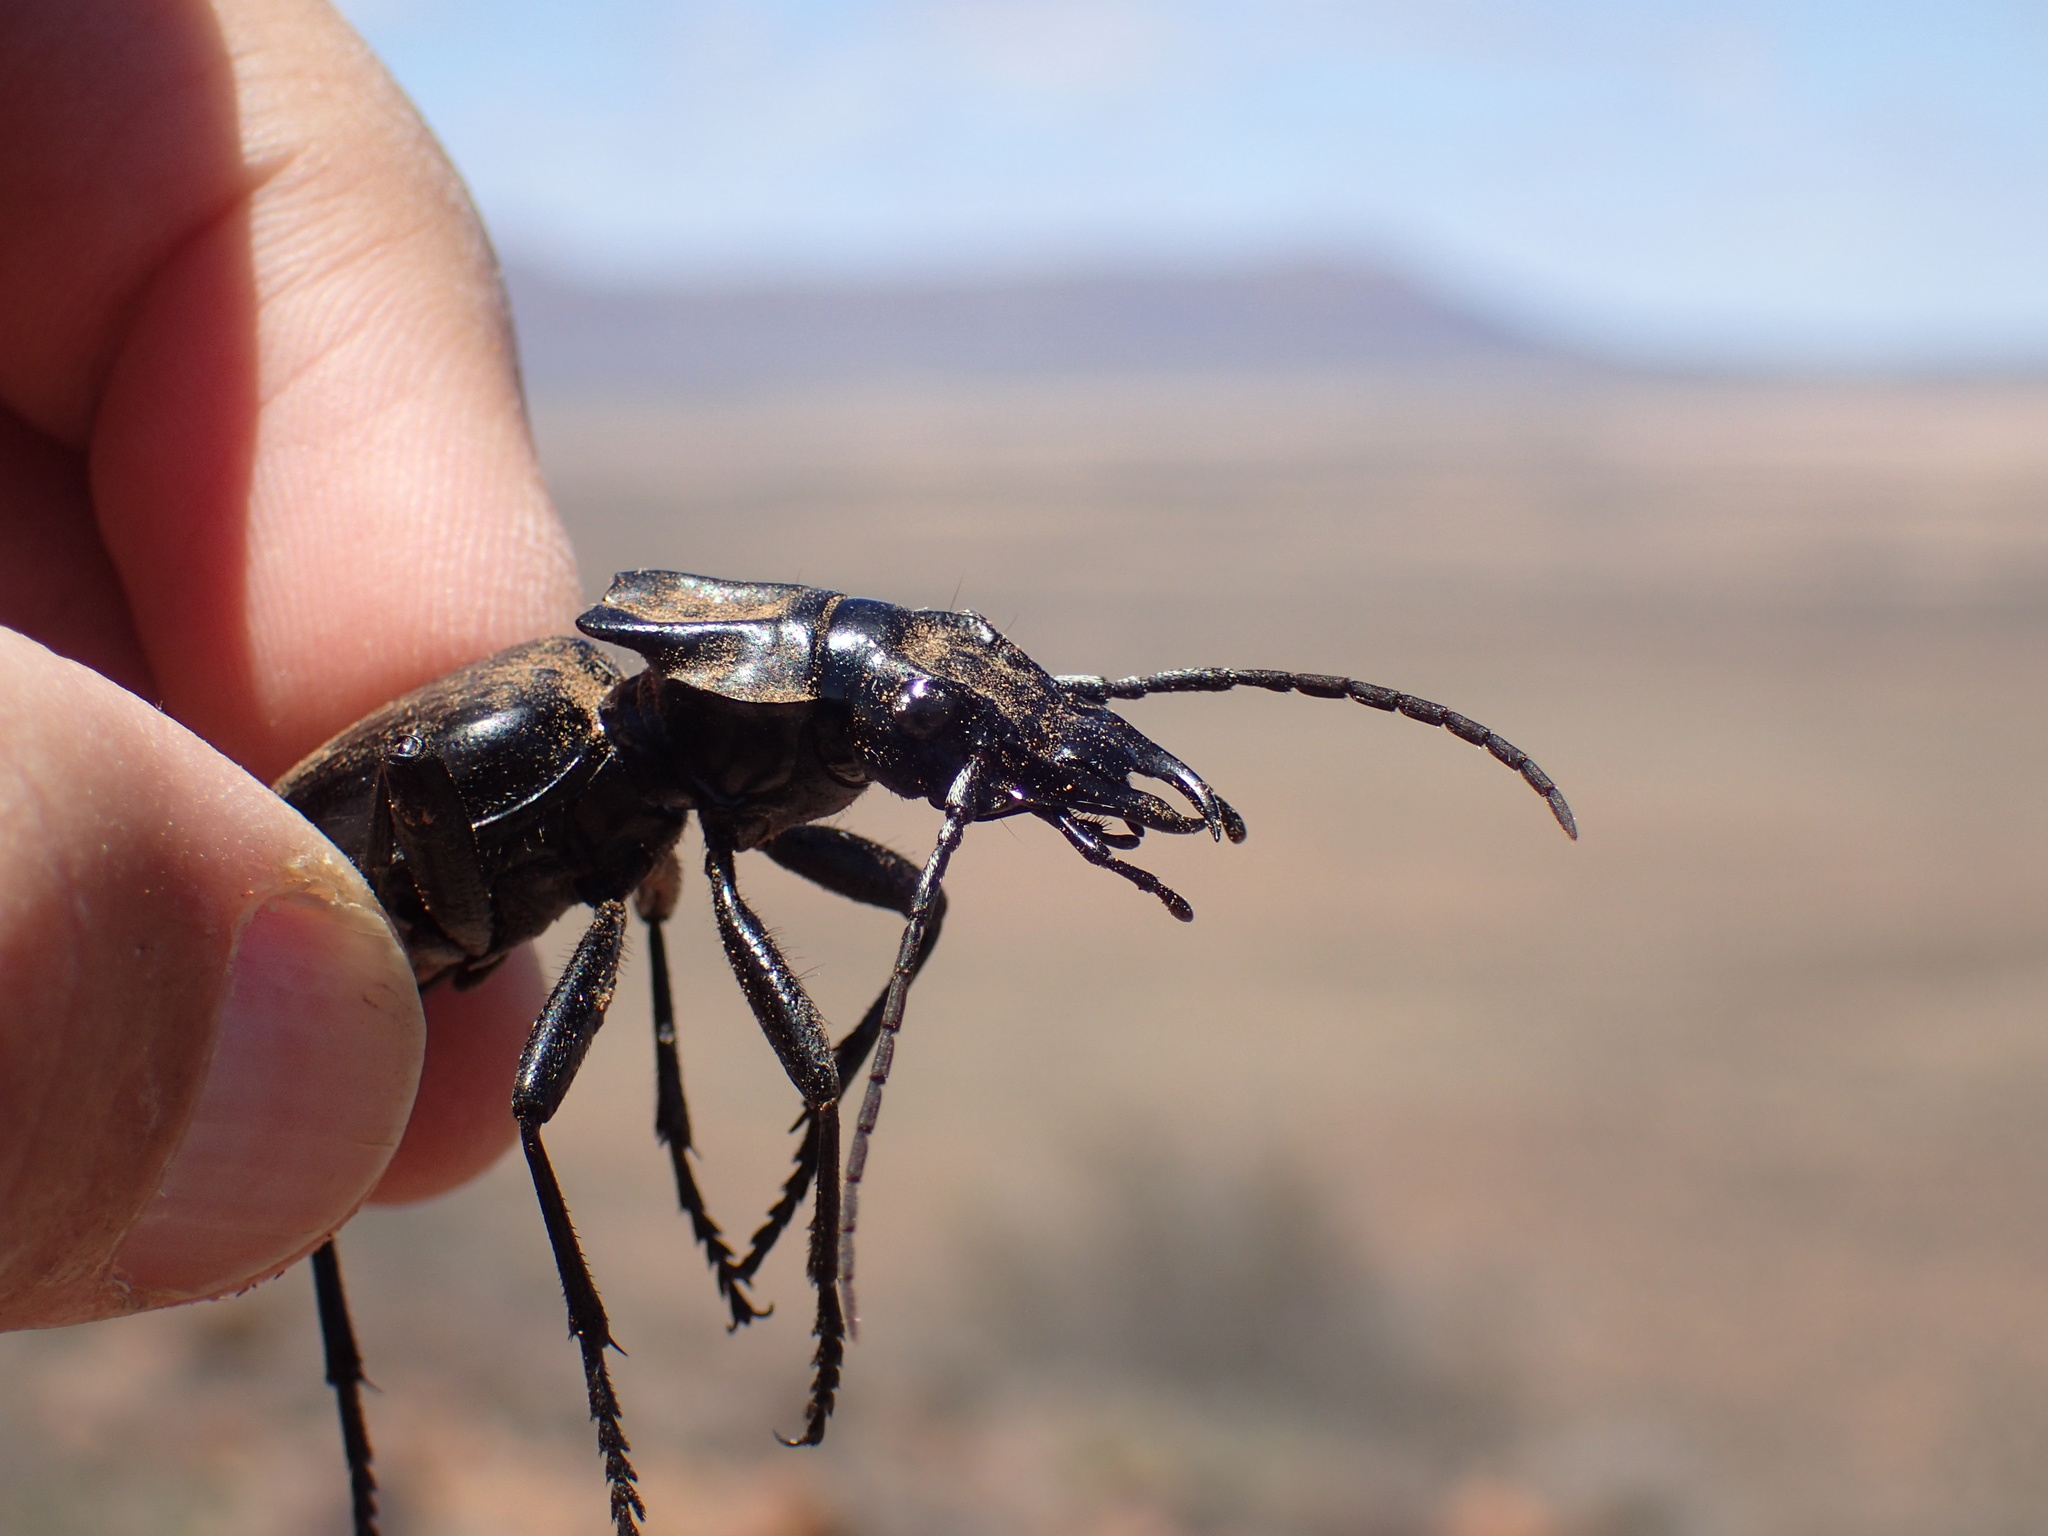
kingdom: Animalia
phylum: Arthropoda
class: Insecta
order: Coleoptera
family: Carabidae
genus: Anthia
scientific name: Anthia maxillosa
